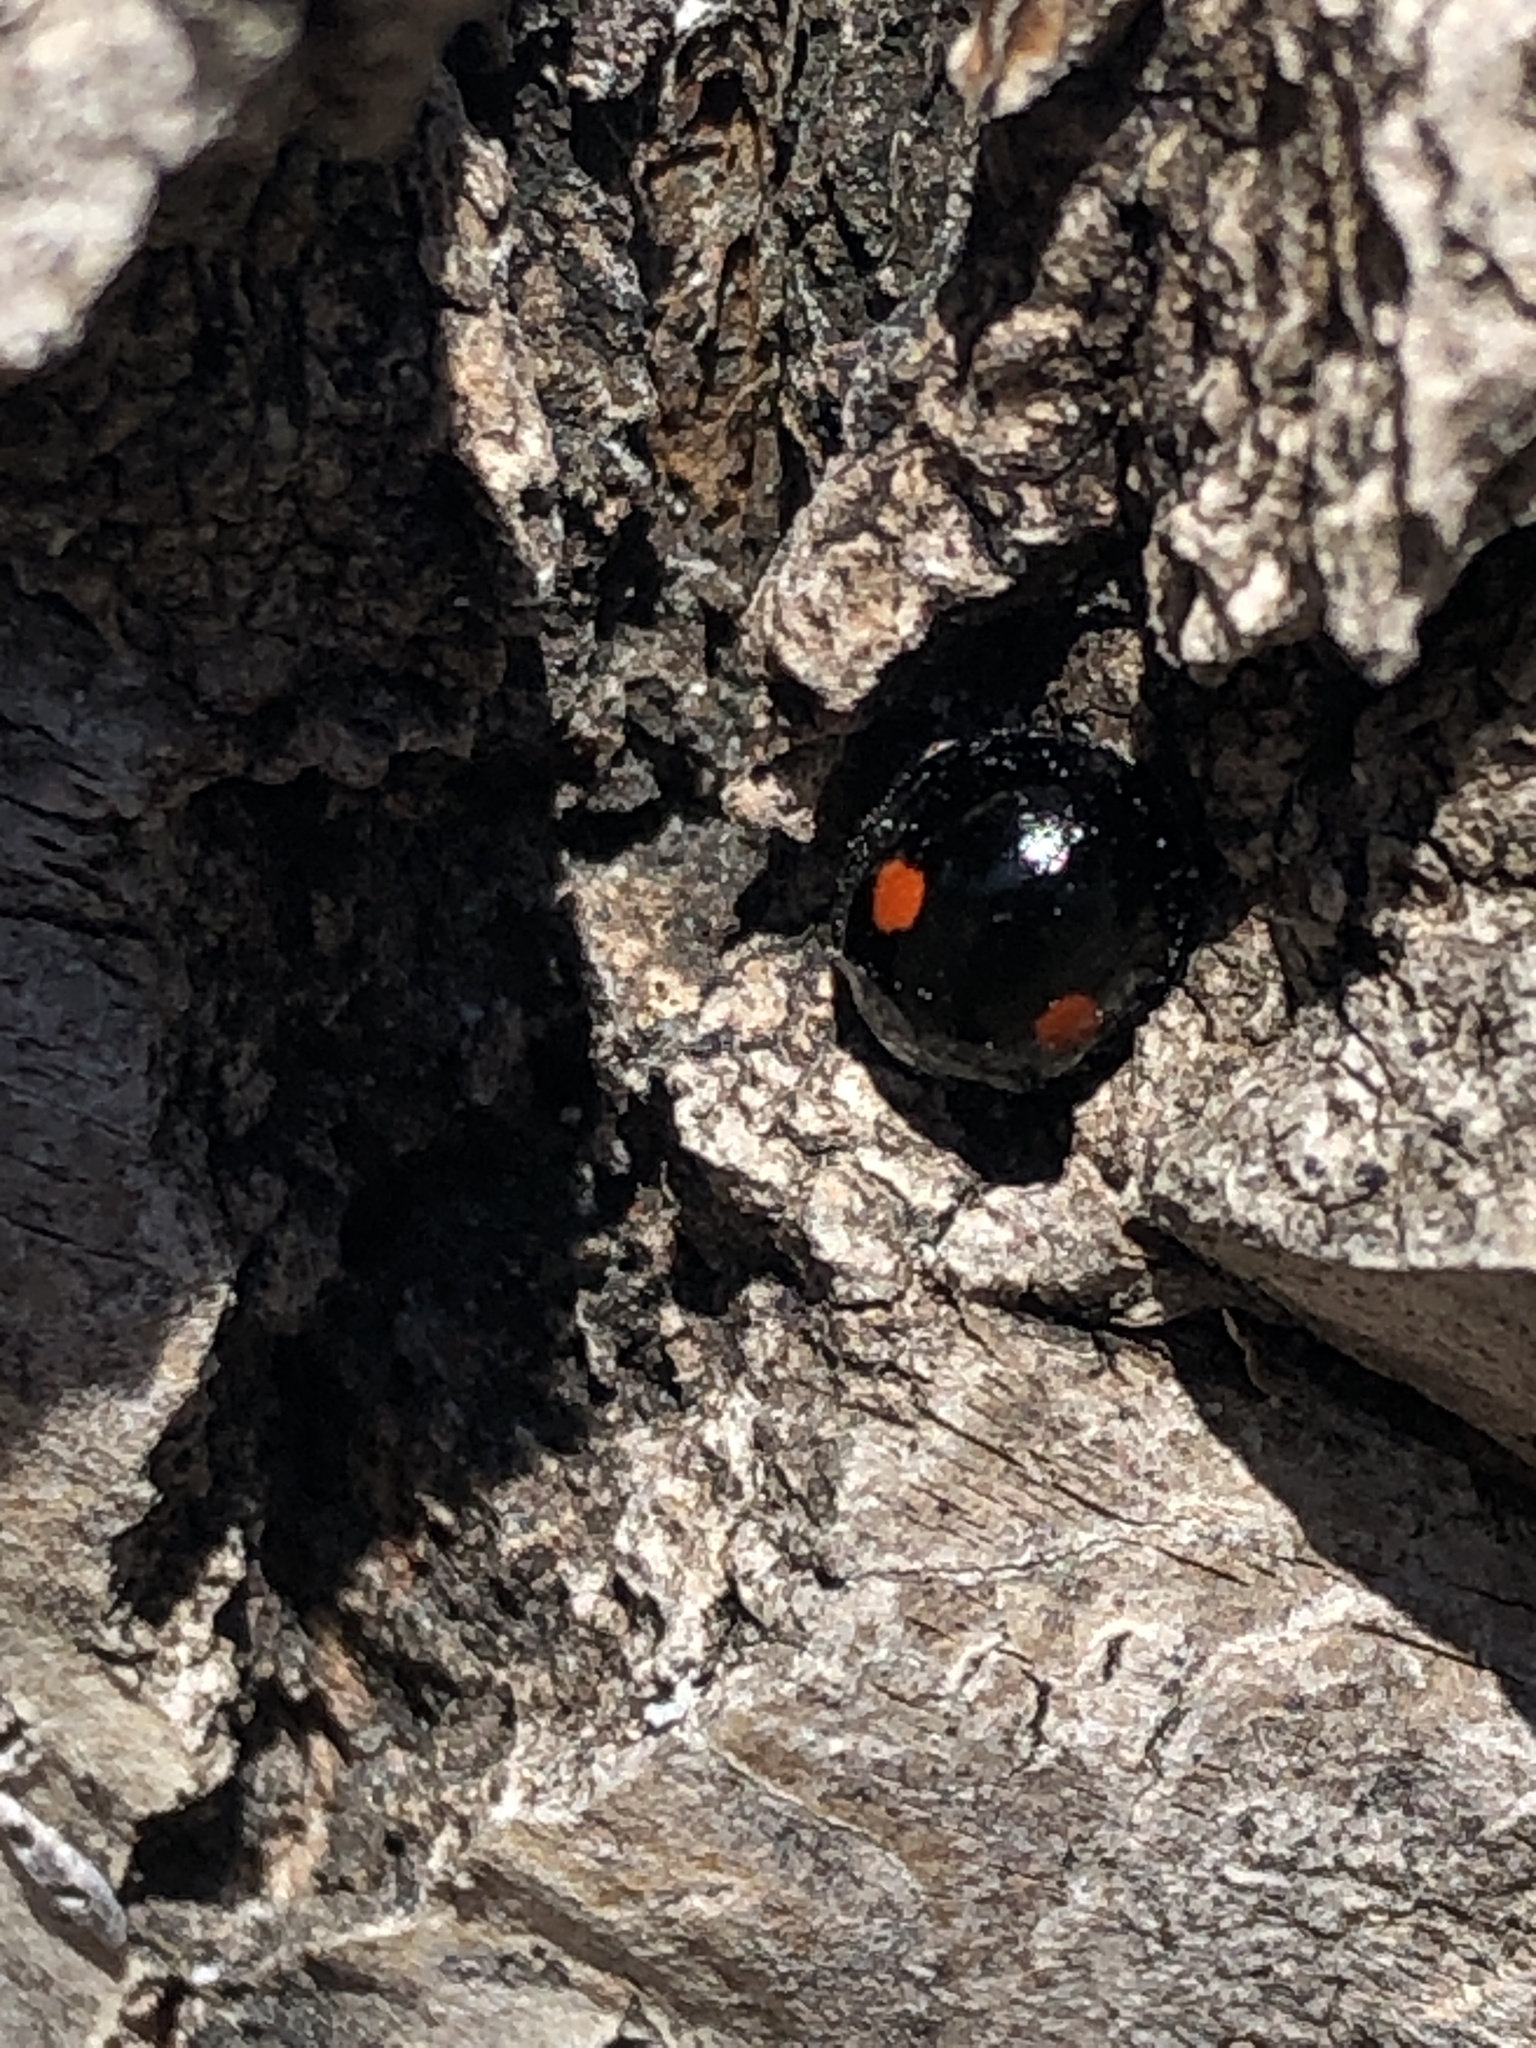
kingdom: Animalia
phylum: Arthropoda
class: Insecta
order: Coleoptera
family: Coccinellidae
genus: Chilocorus
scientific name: Chilocorus stigma
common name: Twicestabbed lady beetle
